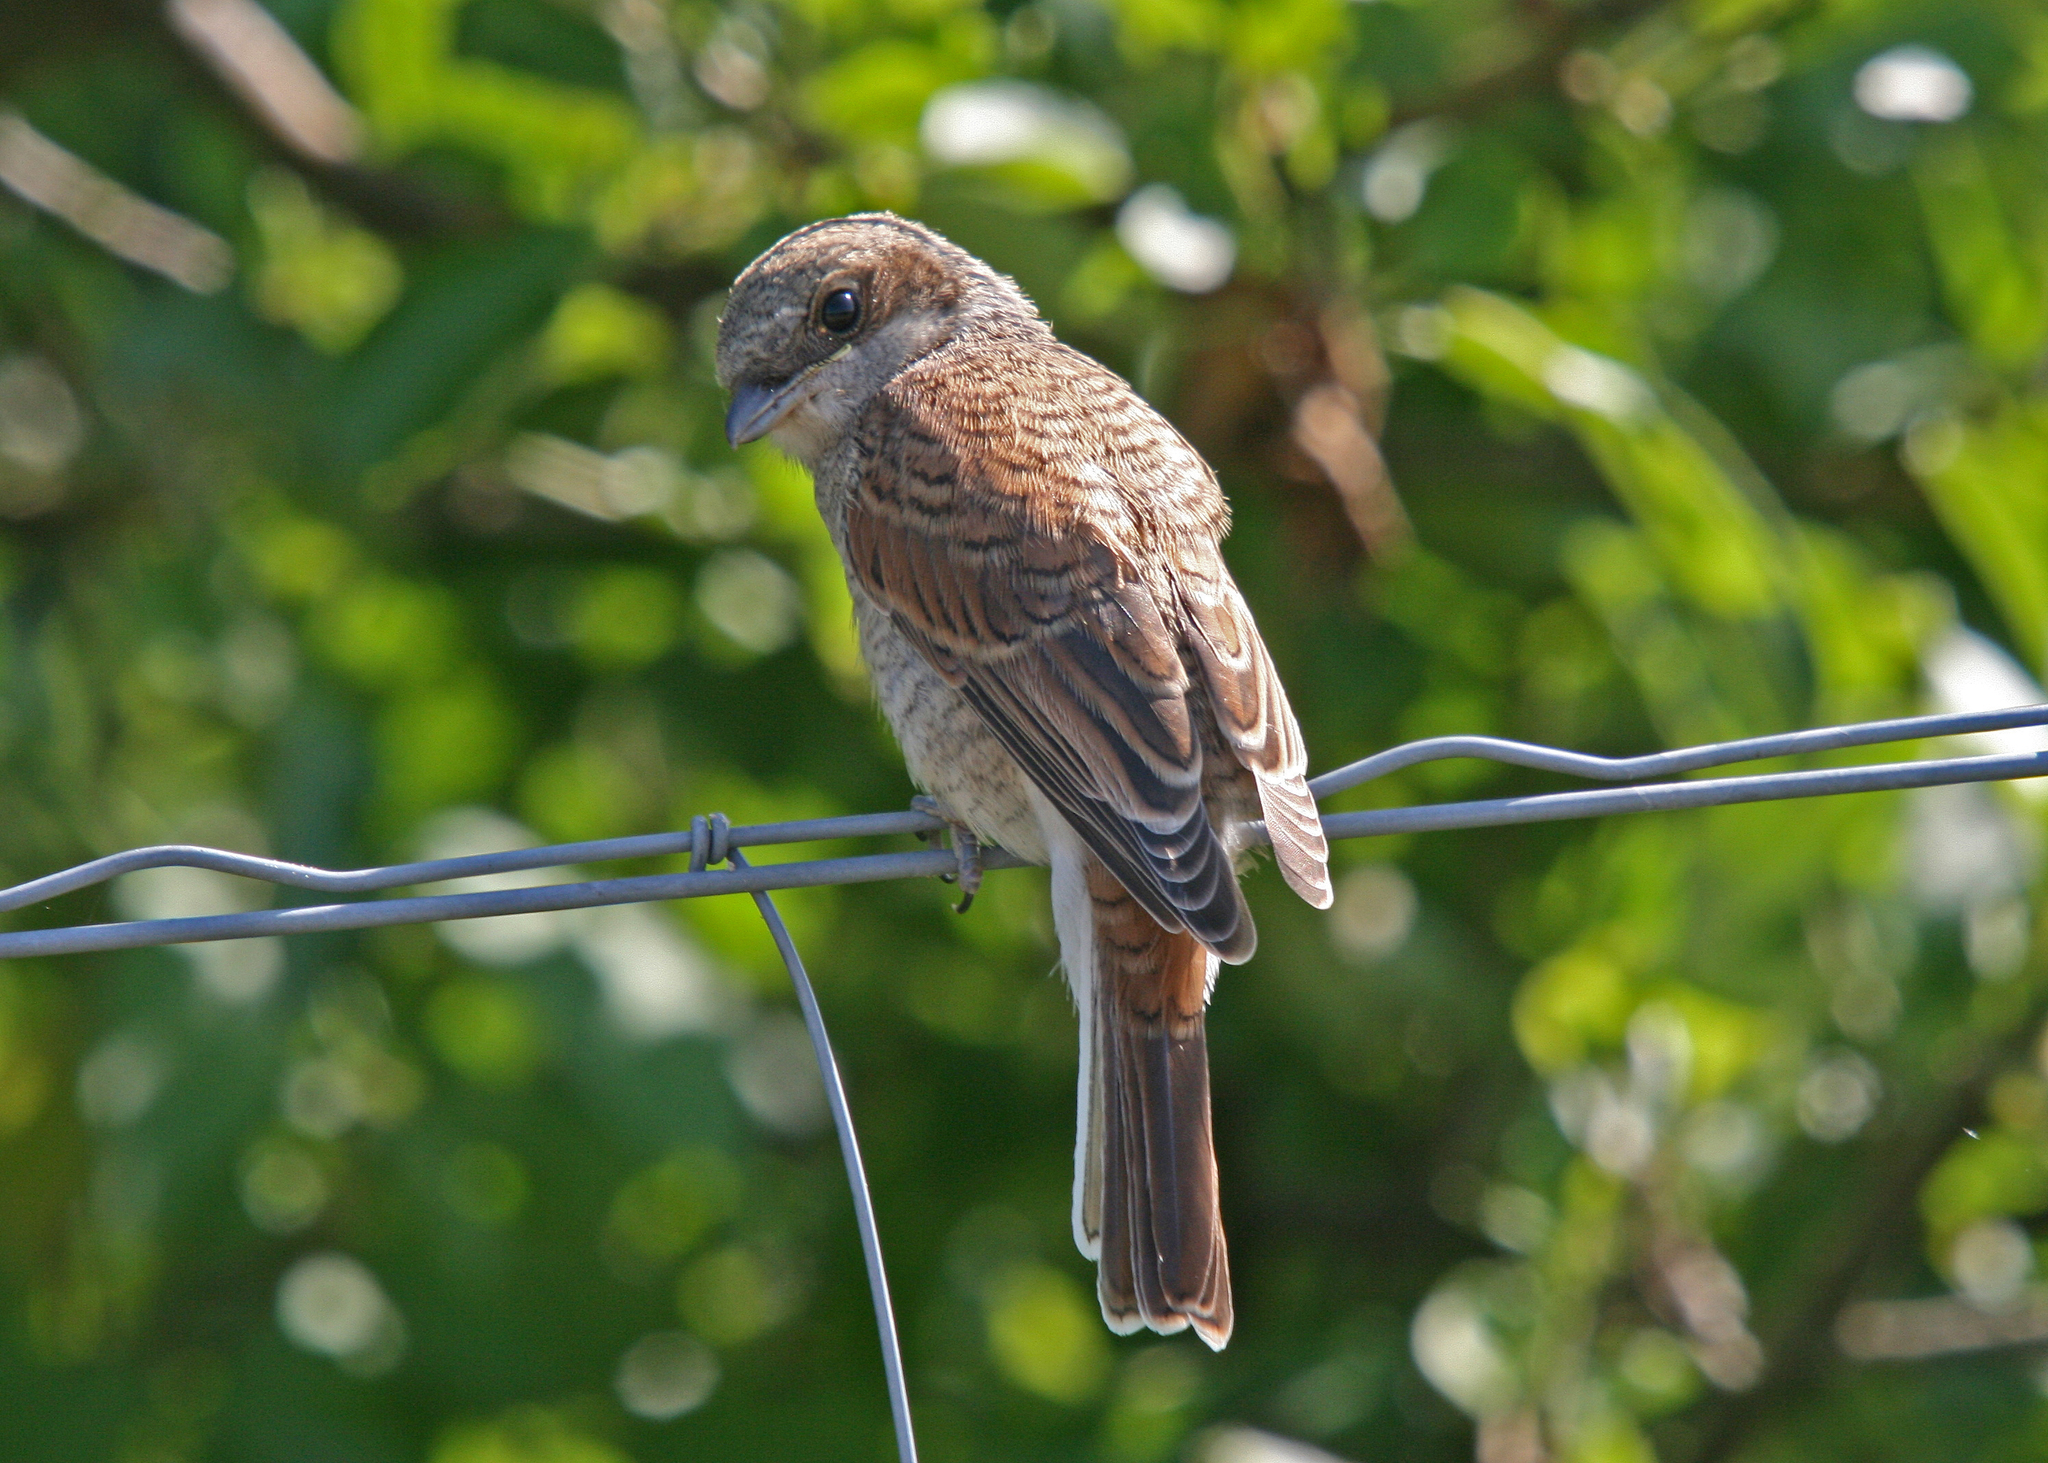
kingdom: Animalia
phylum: Chordata
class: Aves
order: Passeriformes
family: Laniidae
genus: Lanius
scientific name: Lanius collurio
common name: Red-backed shrike
